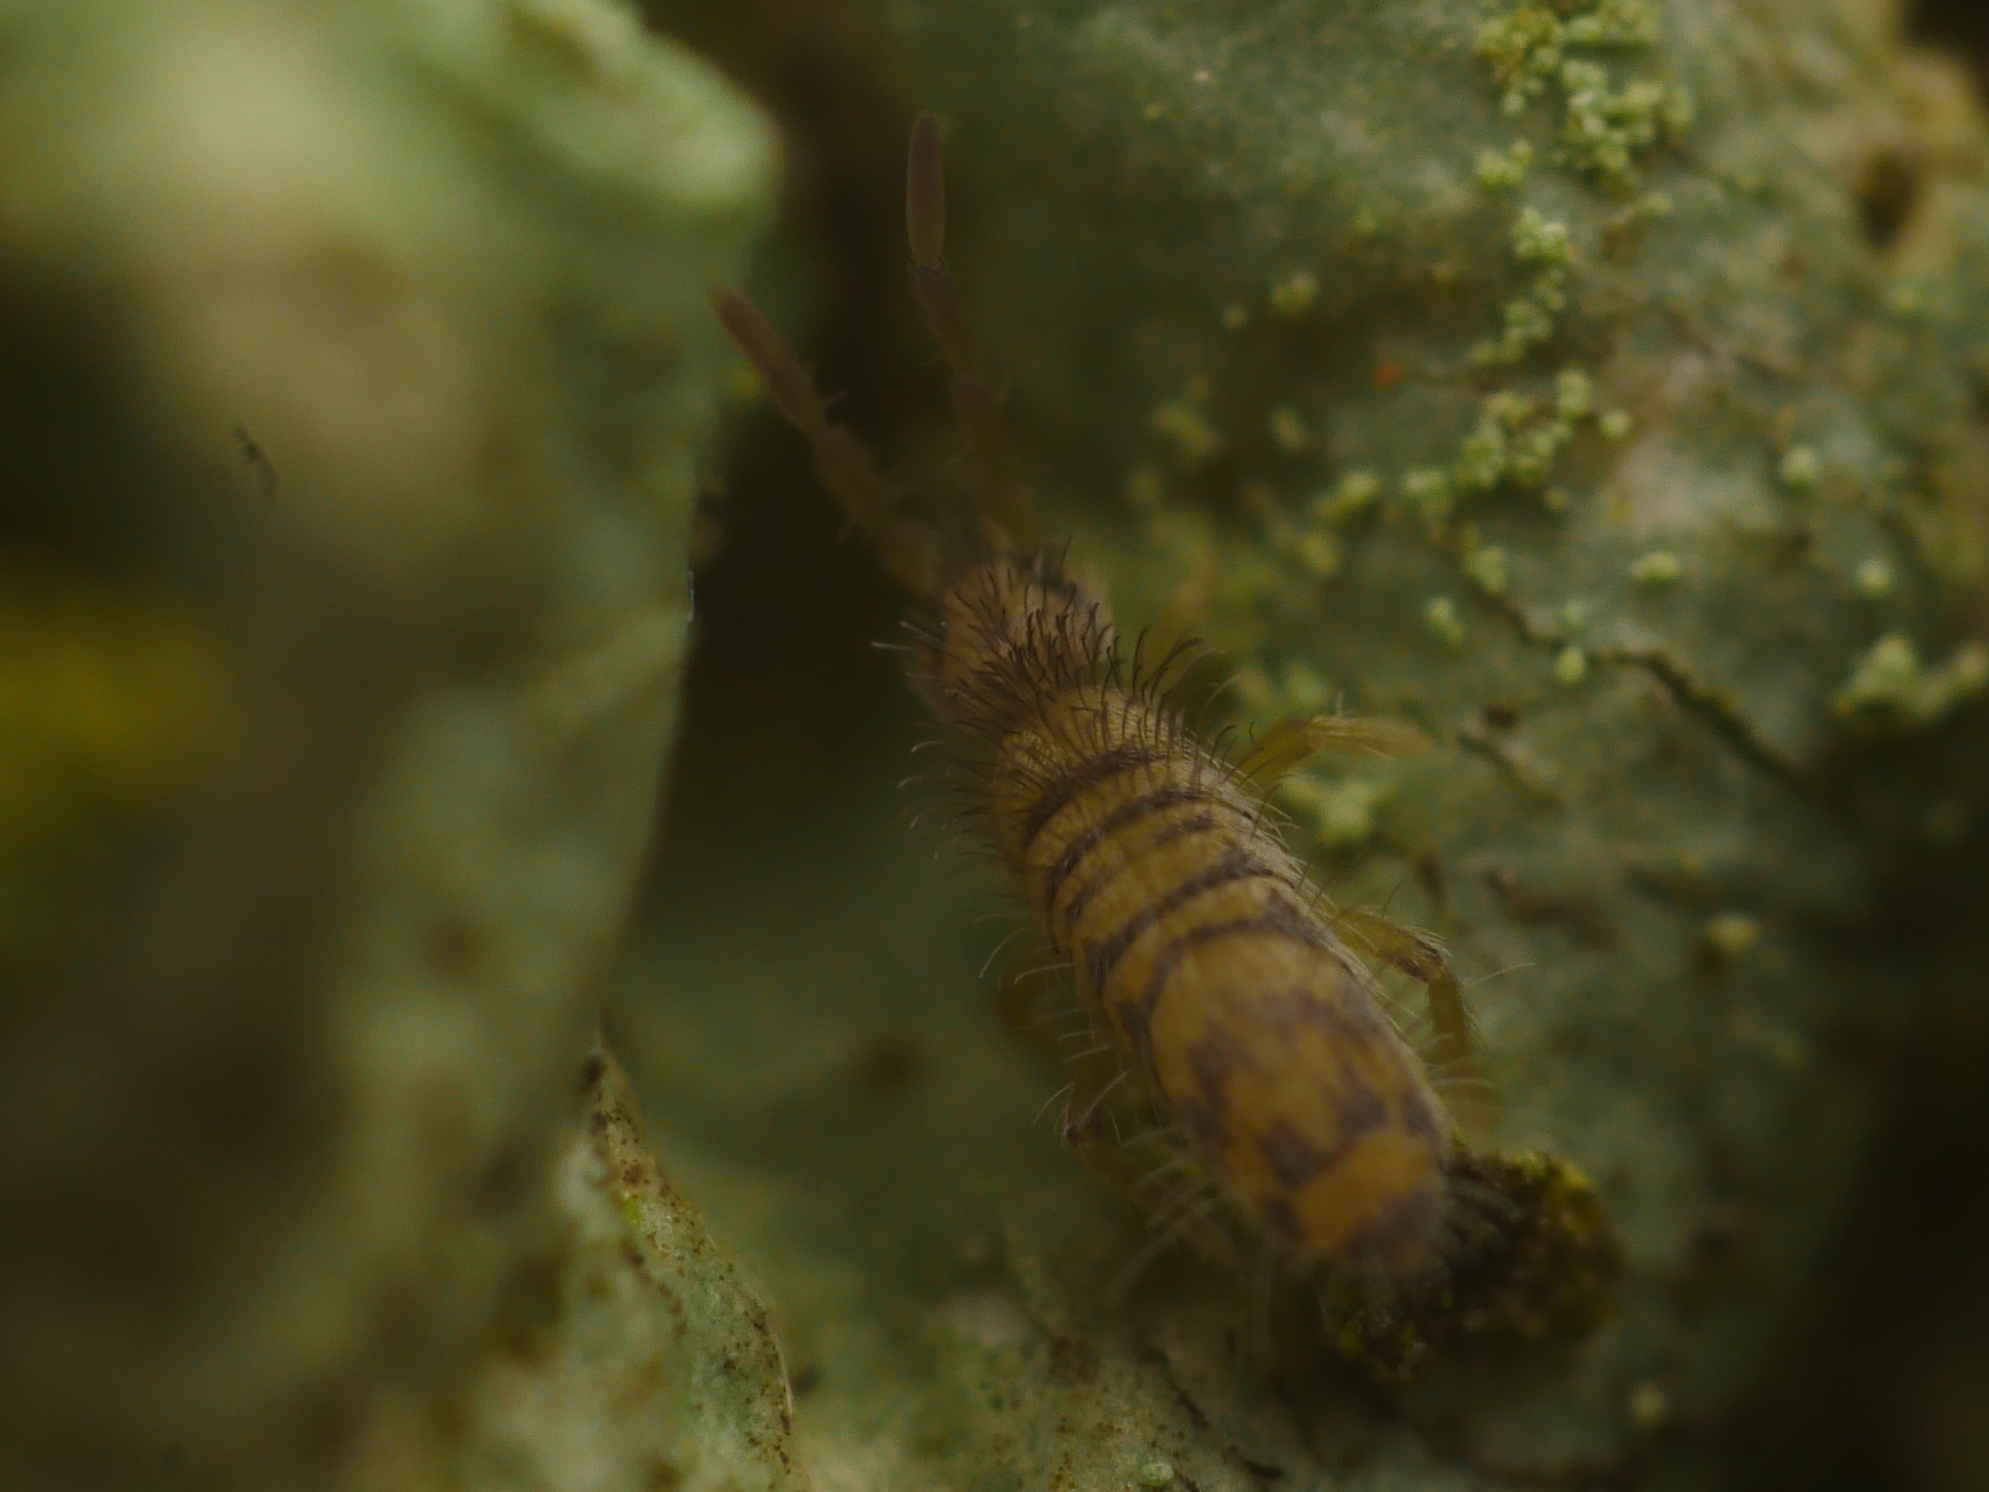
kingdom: Animalia
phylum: Arthropoda
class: Collembola
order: Entomobryomorpha
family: Entomobryidae
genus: Entomobrya
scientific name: Entomobrya multifasciata
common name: Springtail
